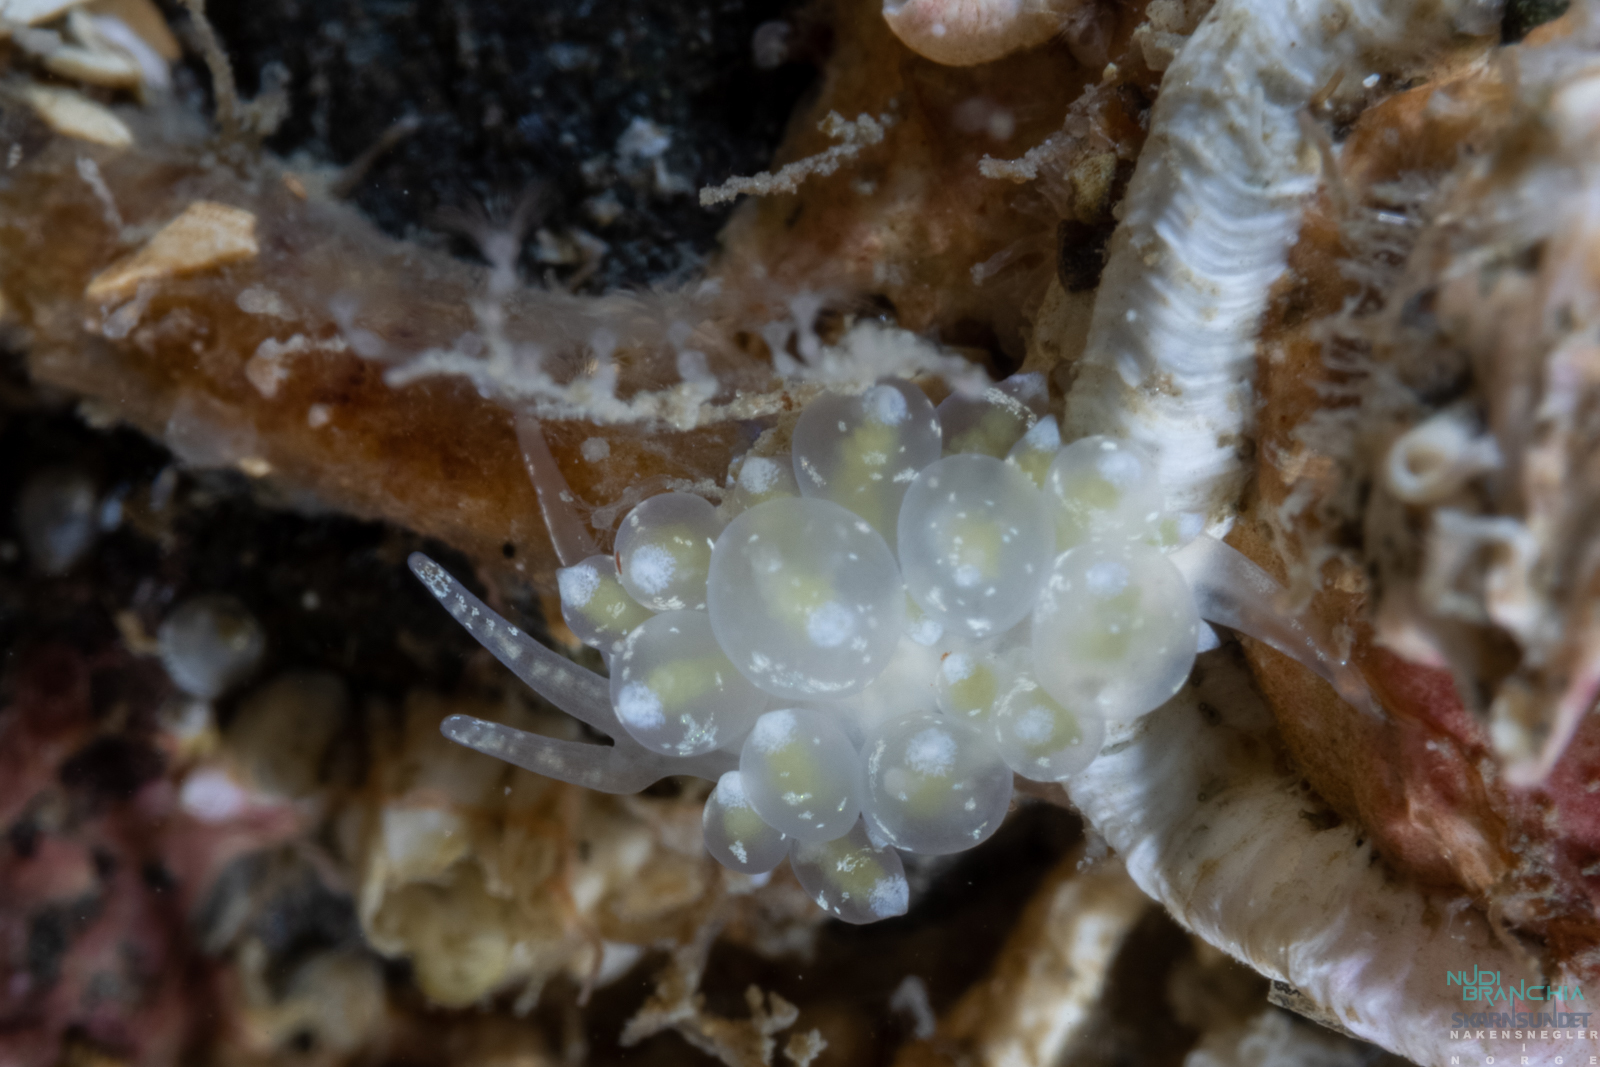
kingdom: Animalia
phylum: Mollusca
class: Gastropoda
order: Nudibranchia
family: Eubranchidae
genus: Amphorina
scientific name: Amphorina pallida
